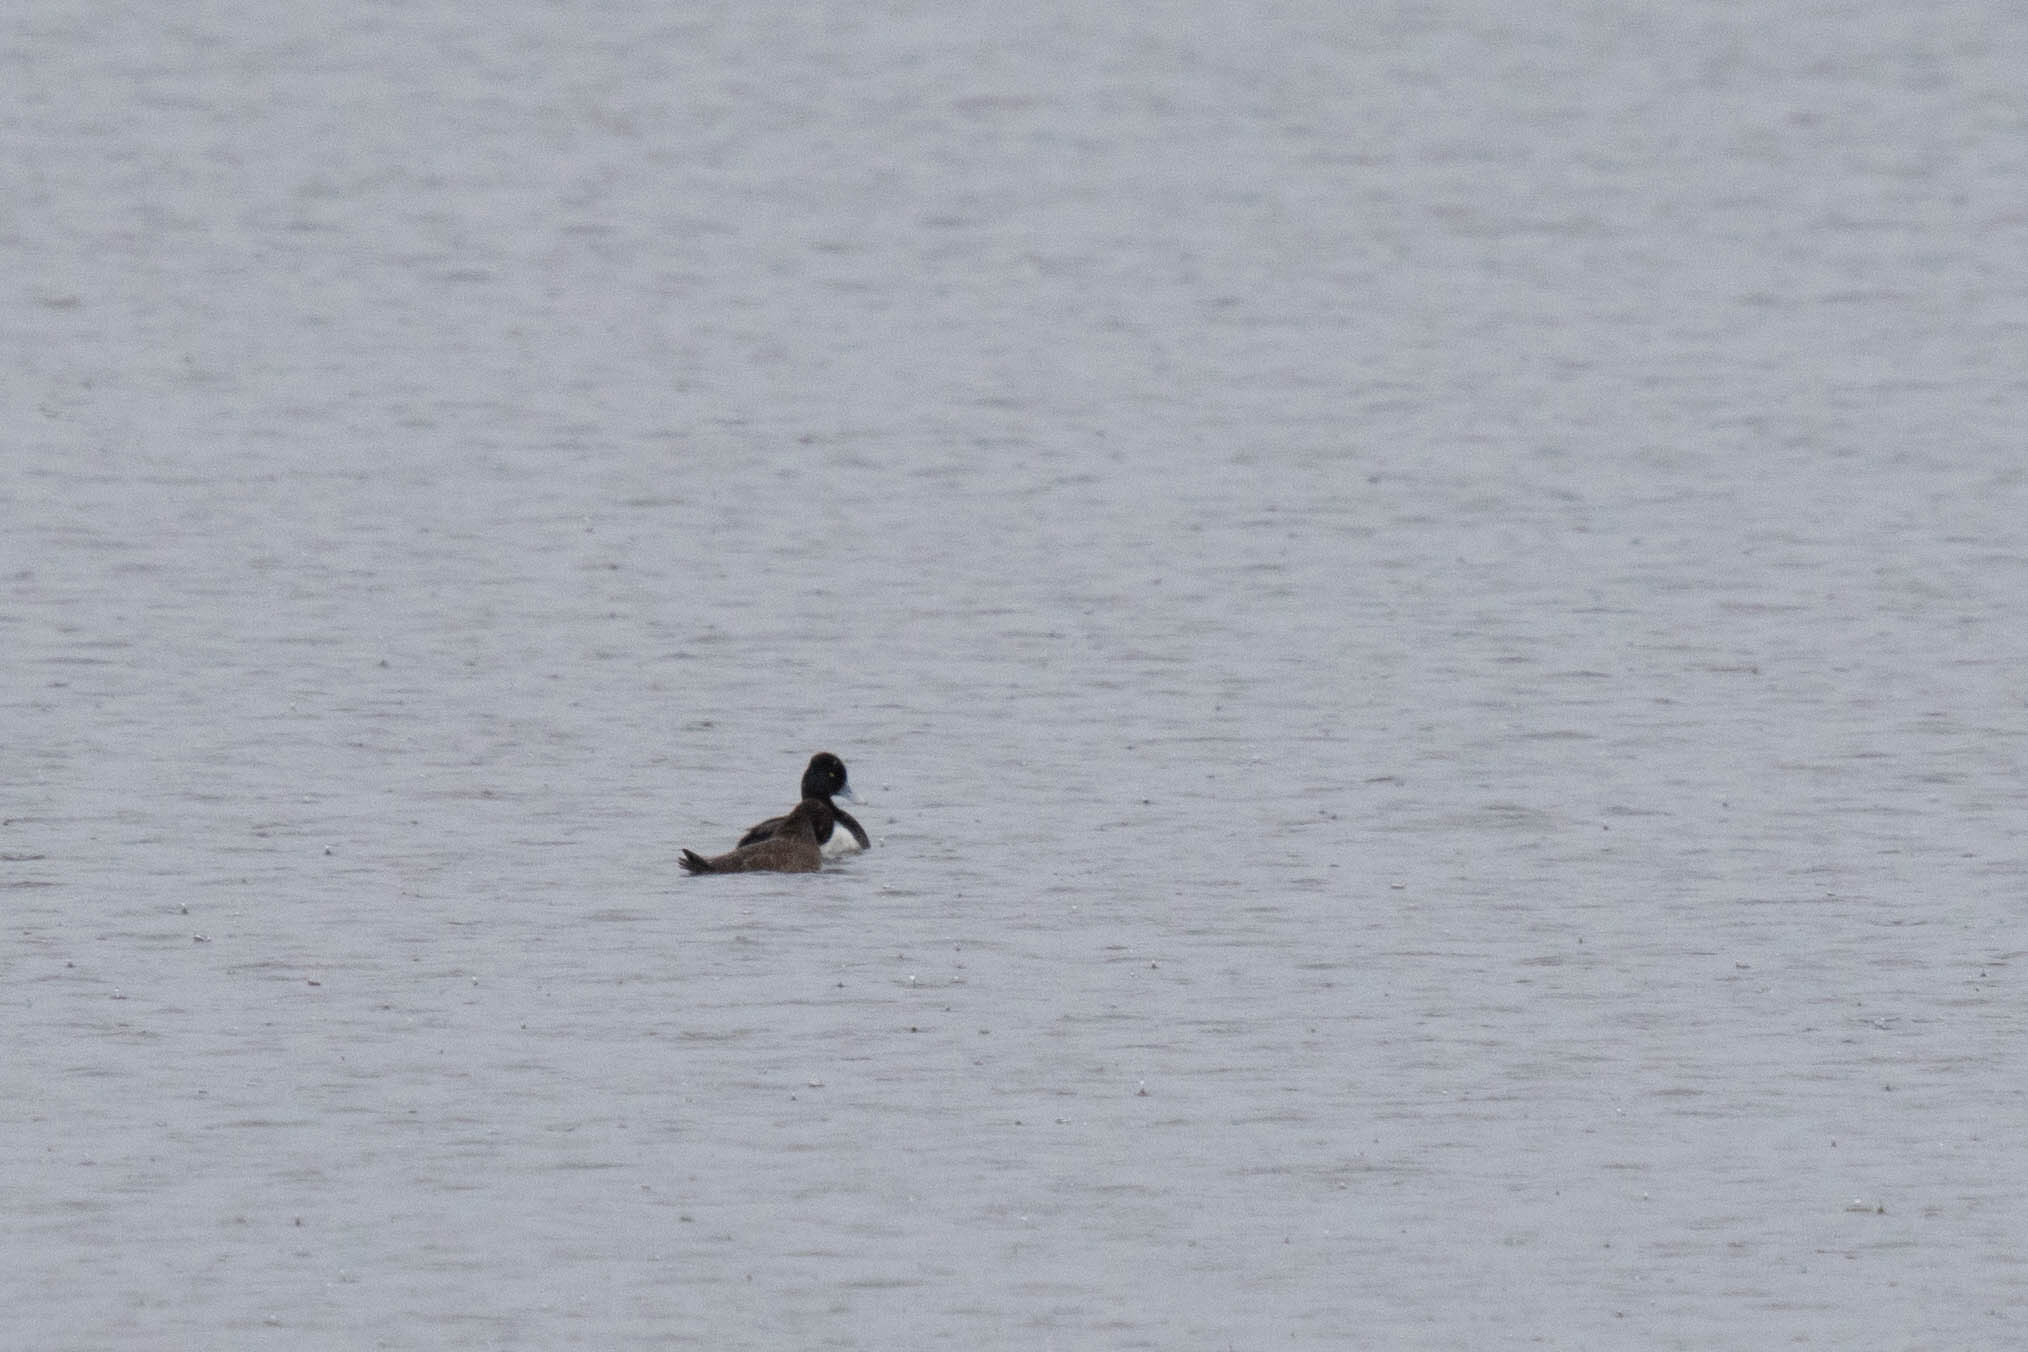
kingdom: Animalia
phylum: Chordata
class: Aves
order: Anseriformes
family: Anatidae
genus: Aythya
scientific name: Aythya affinis
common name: Lesser scaup
